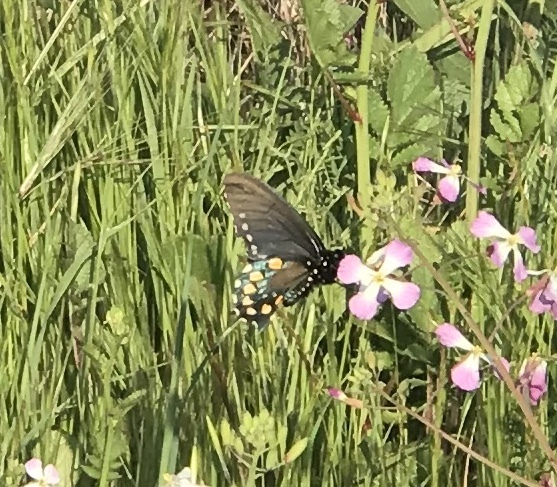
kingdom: Animalia
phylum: Arthropoda
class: Insecta
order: Lepidoptera
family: Papilionidae
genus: Battus
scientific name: Battus philenor
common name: Pipevine swallowtail
